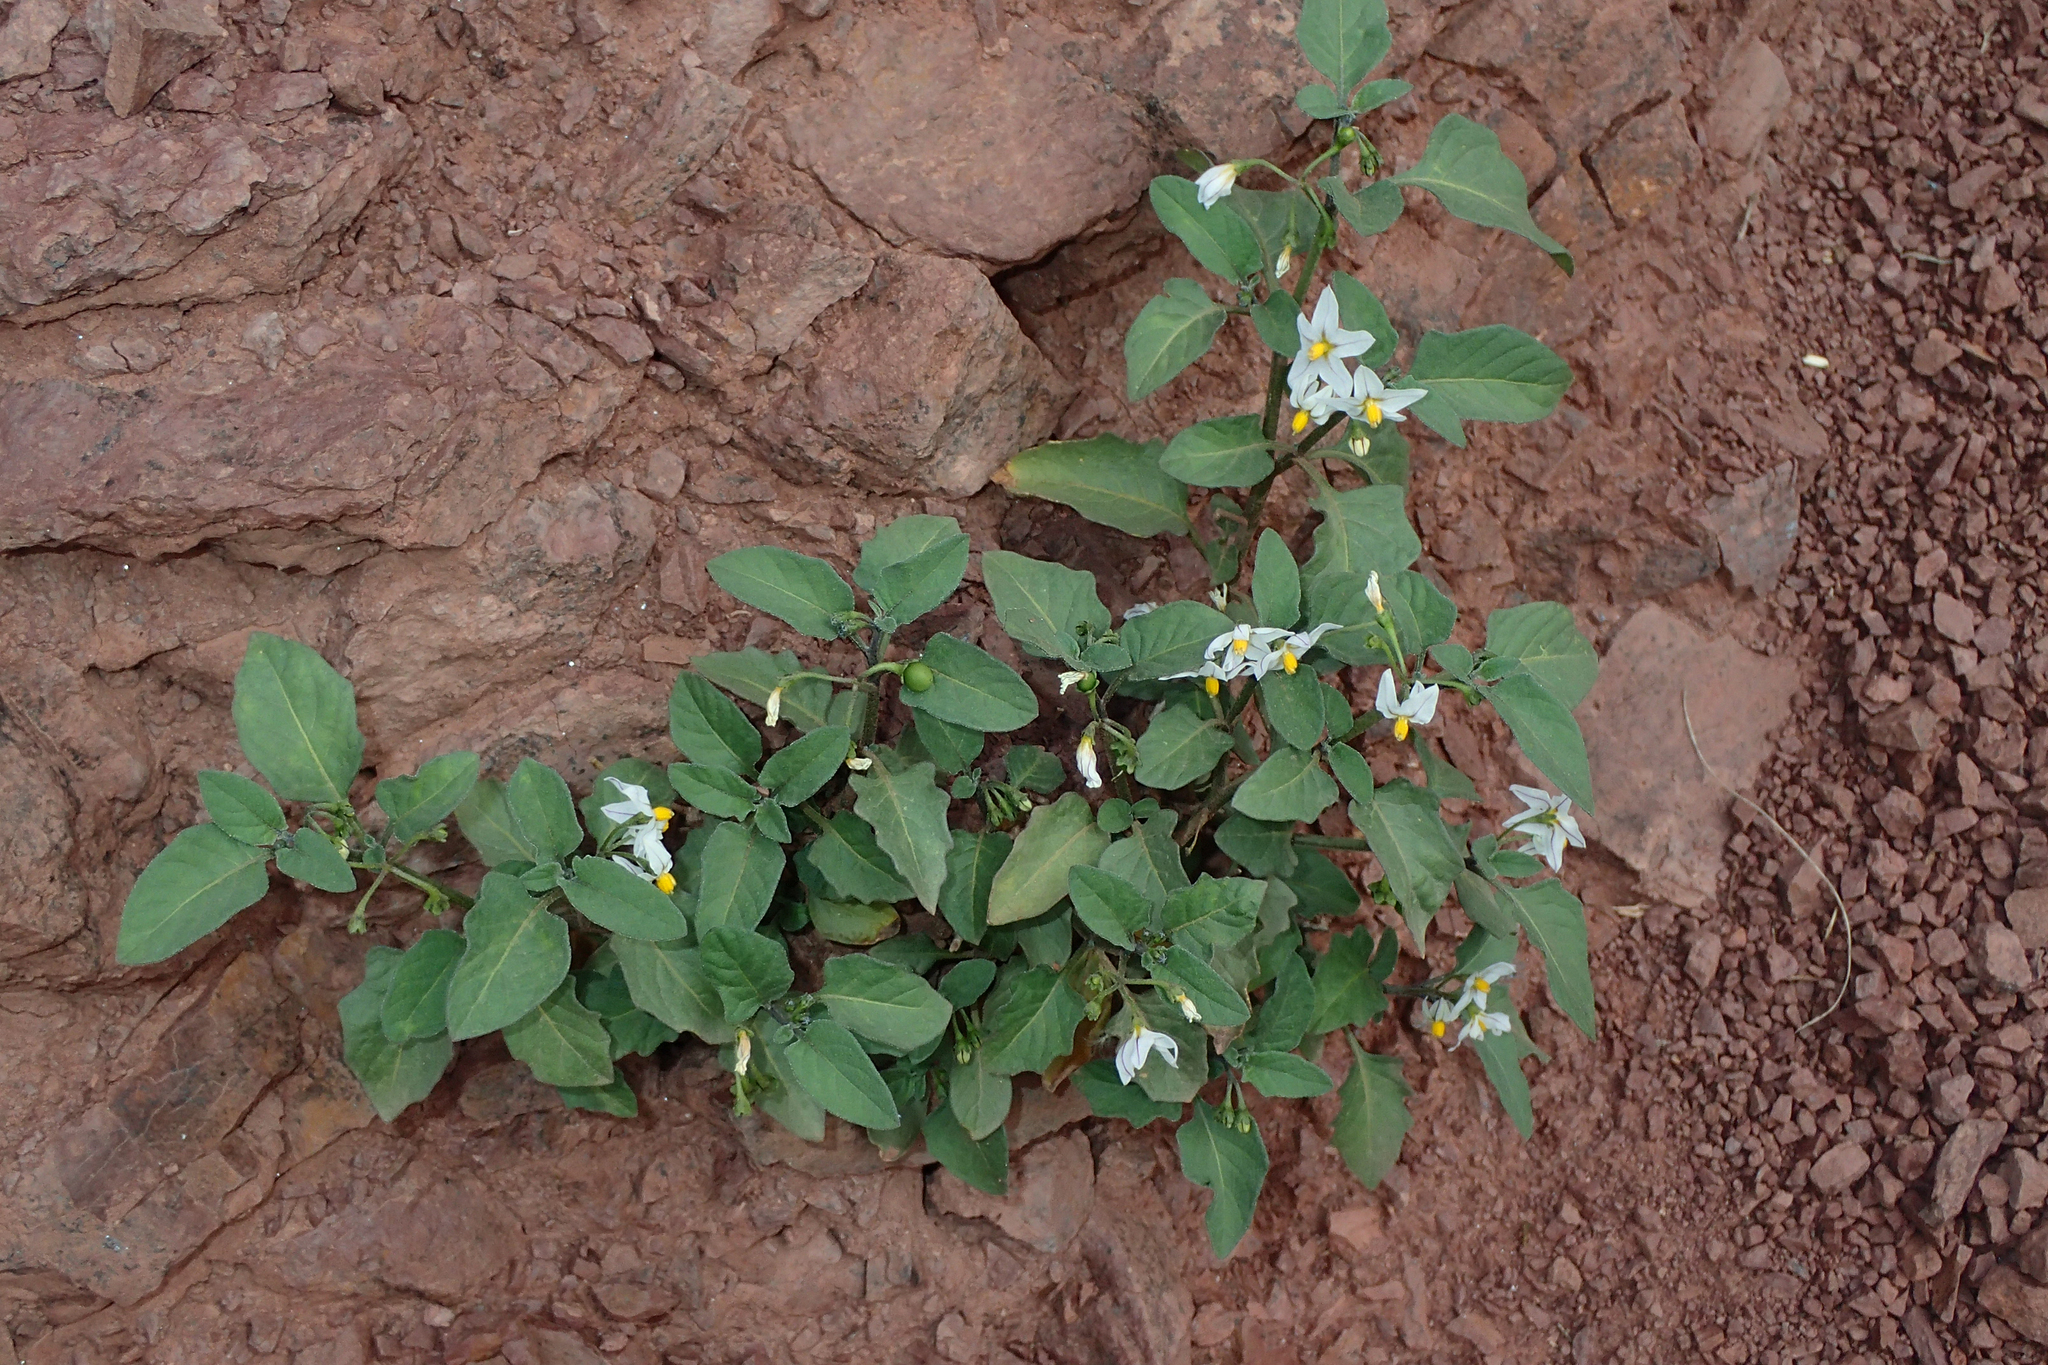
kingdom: Plantae
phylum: Tracheophyta
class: Magnoliopsida
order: Solanales
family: Solanaceae
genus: Solanum
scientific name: Solanum villosum
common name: Red nightshade
